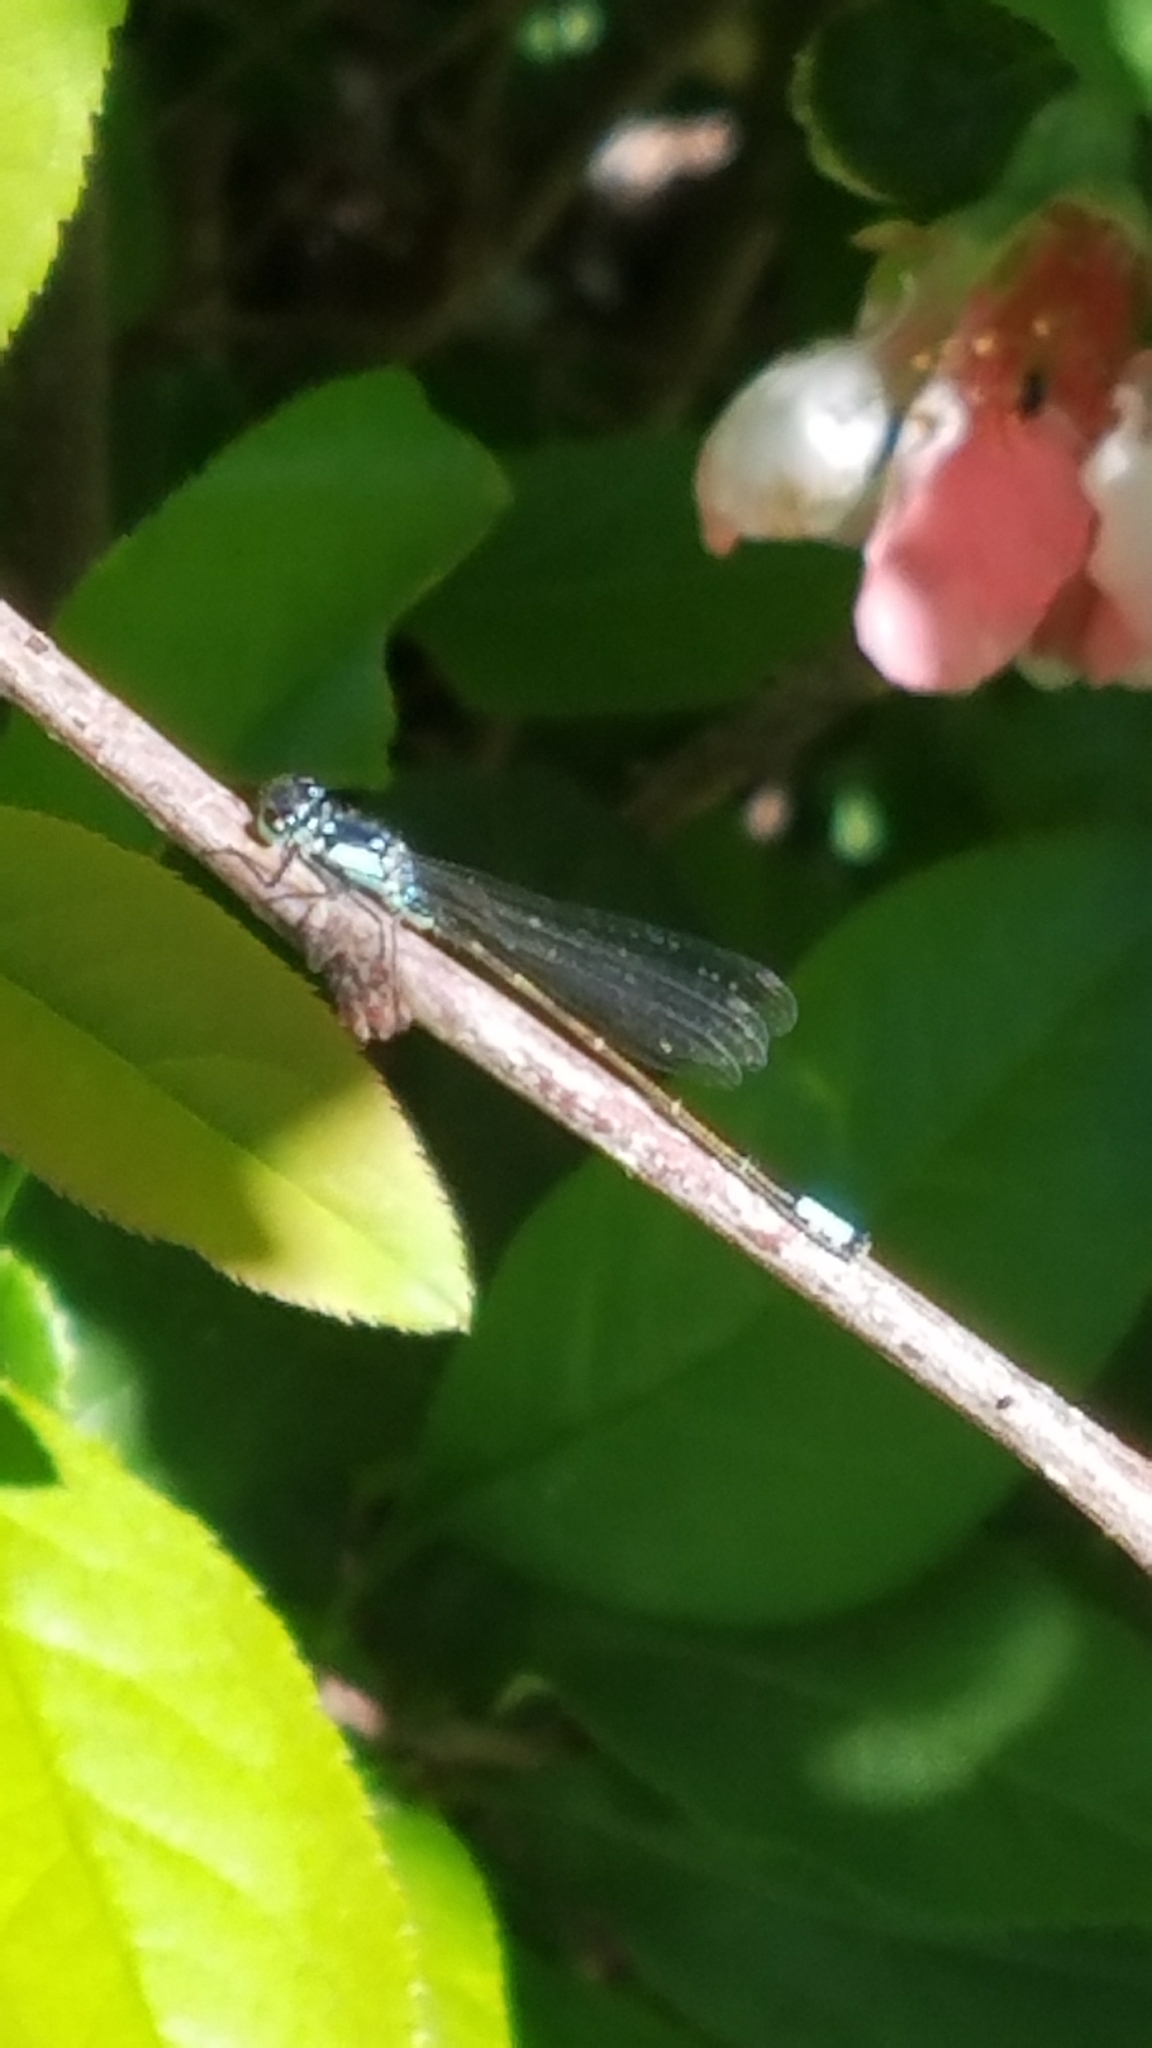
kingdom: Animalia
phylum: Arthropoda
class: Insecta
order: Odonata
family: Coenagrionidae
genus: Ischnura
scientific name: Ischnura cervula
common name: Pacific forktail
